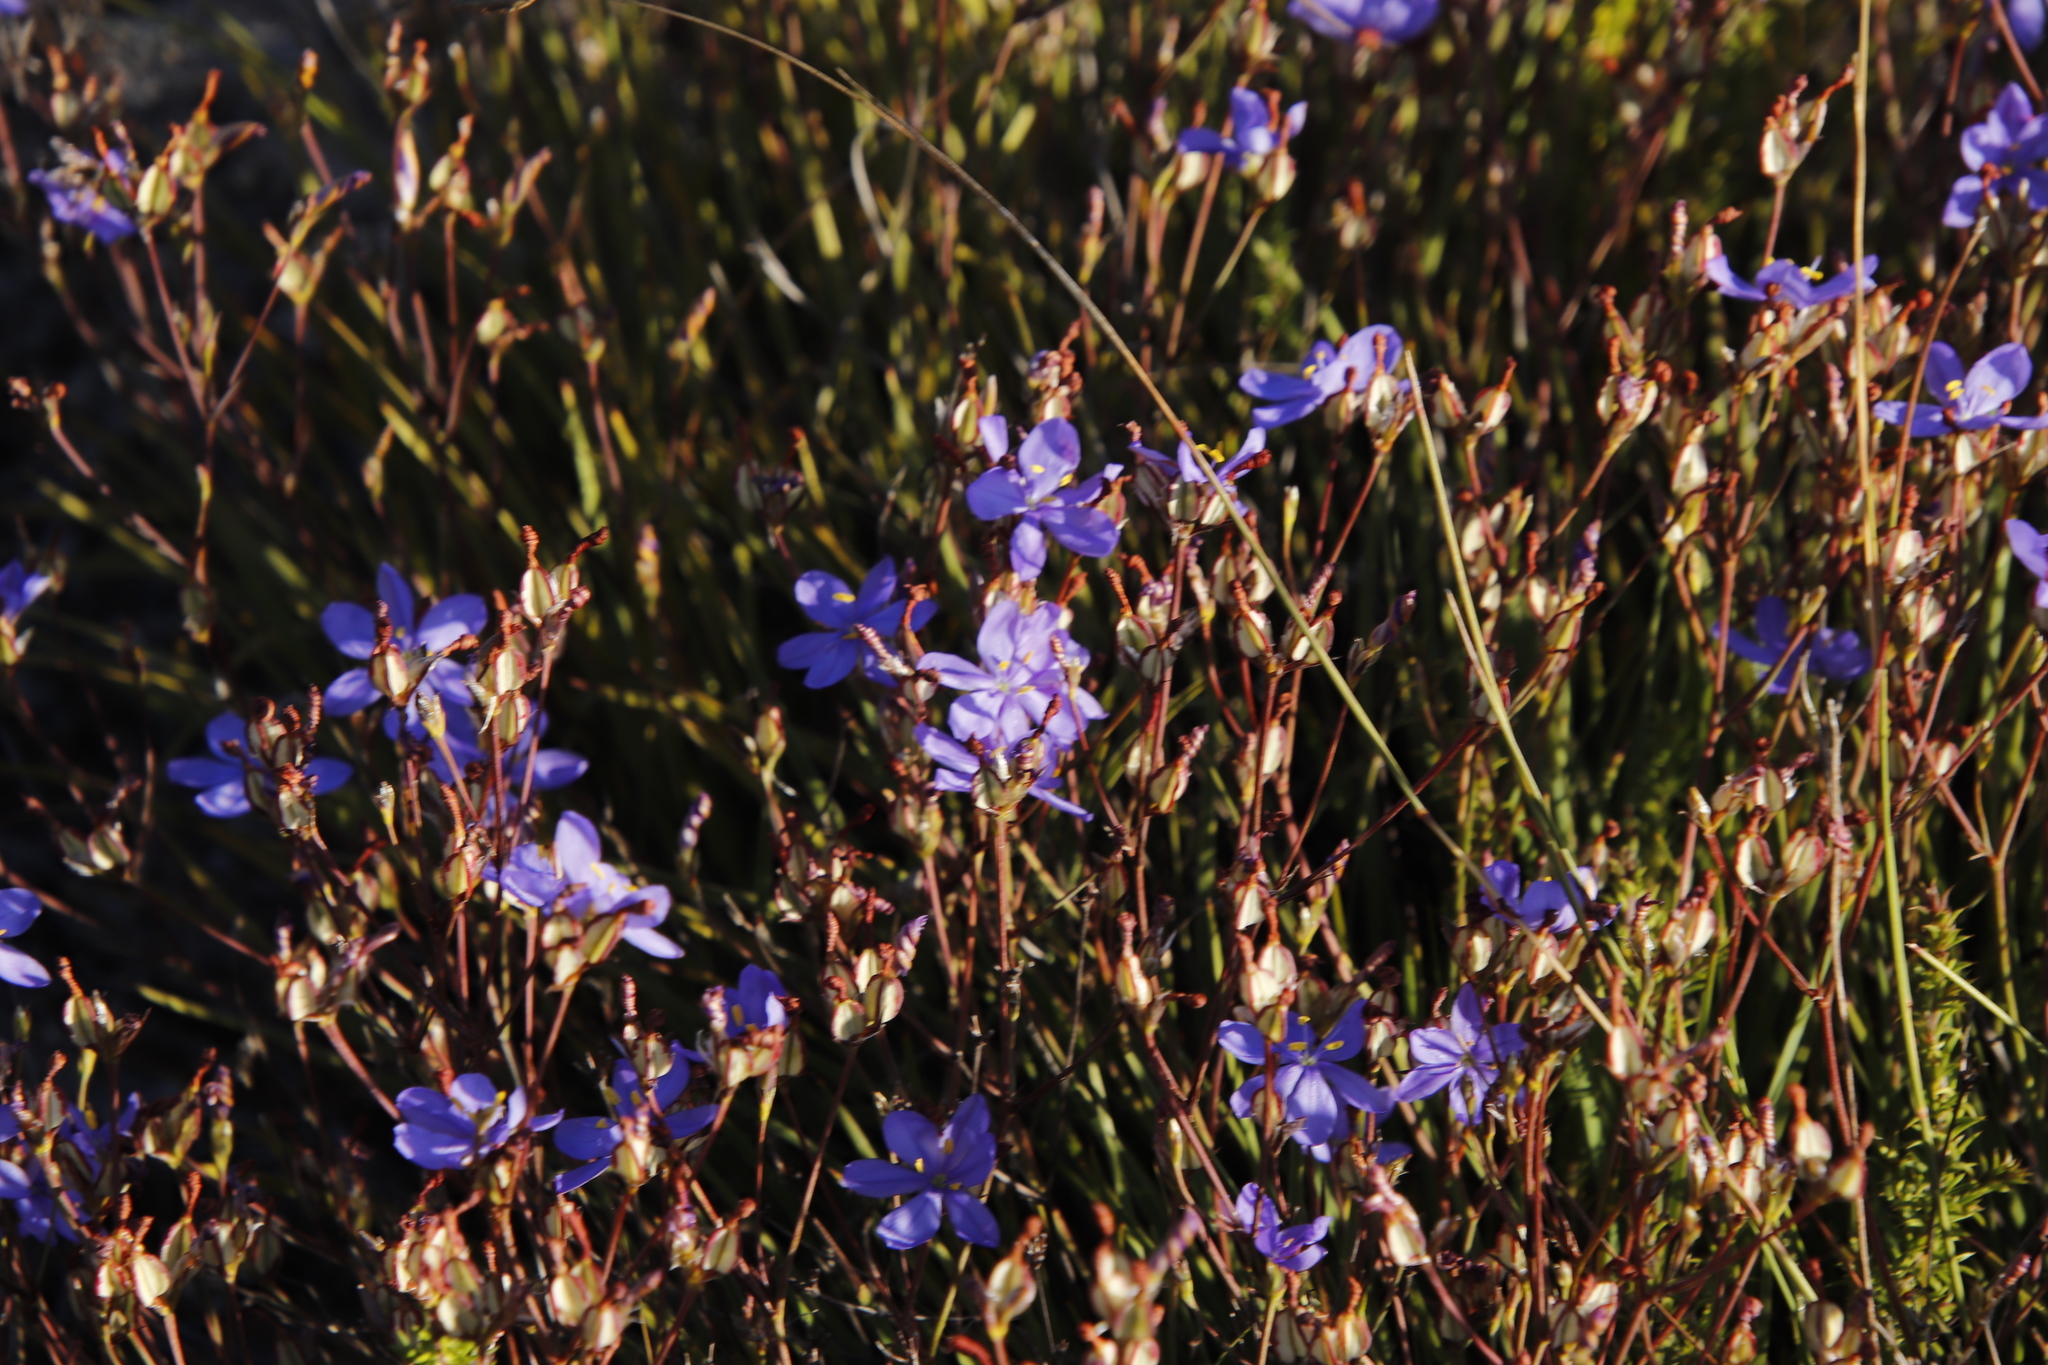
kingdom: Plantae
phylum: Tracheophyta
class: Liliopsida
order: Asparagales
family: Iridaceae
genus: Aristea
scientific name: Aristea dichotoma
